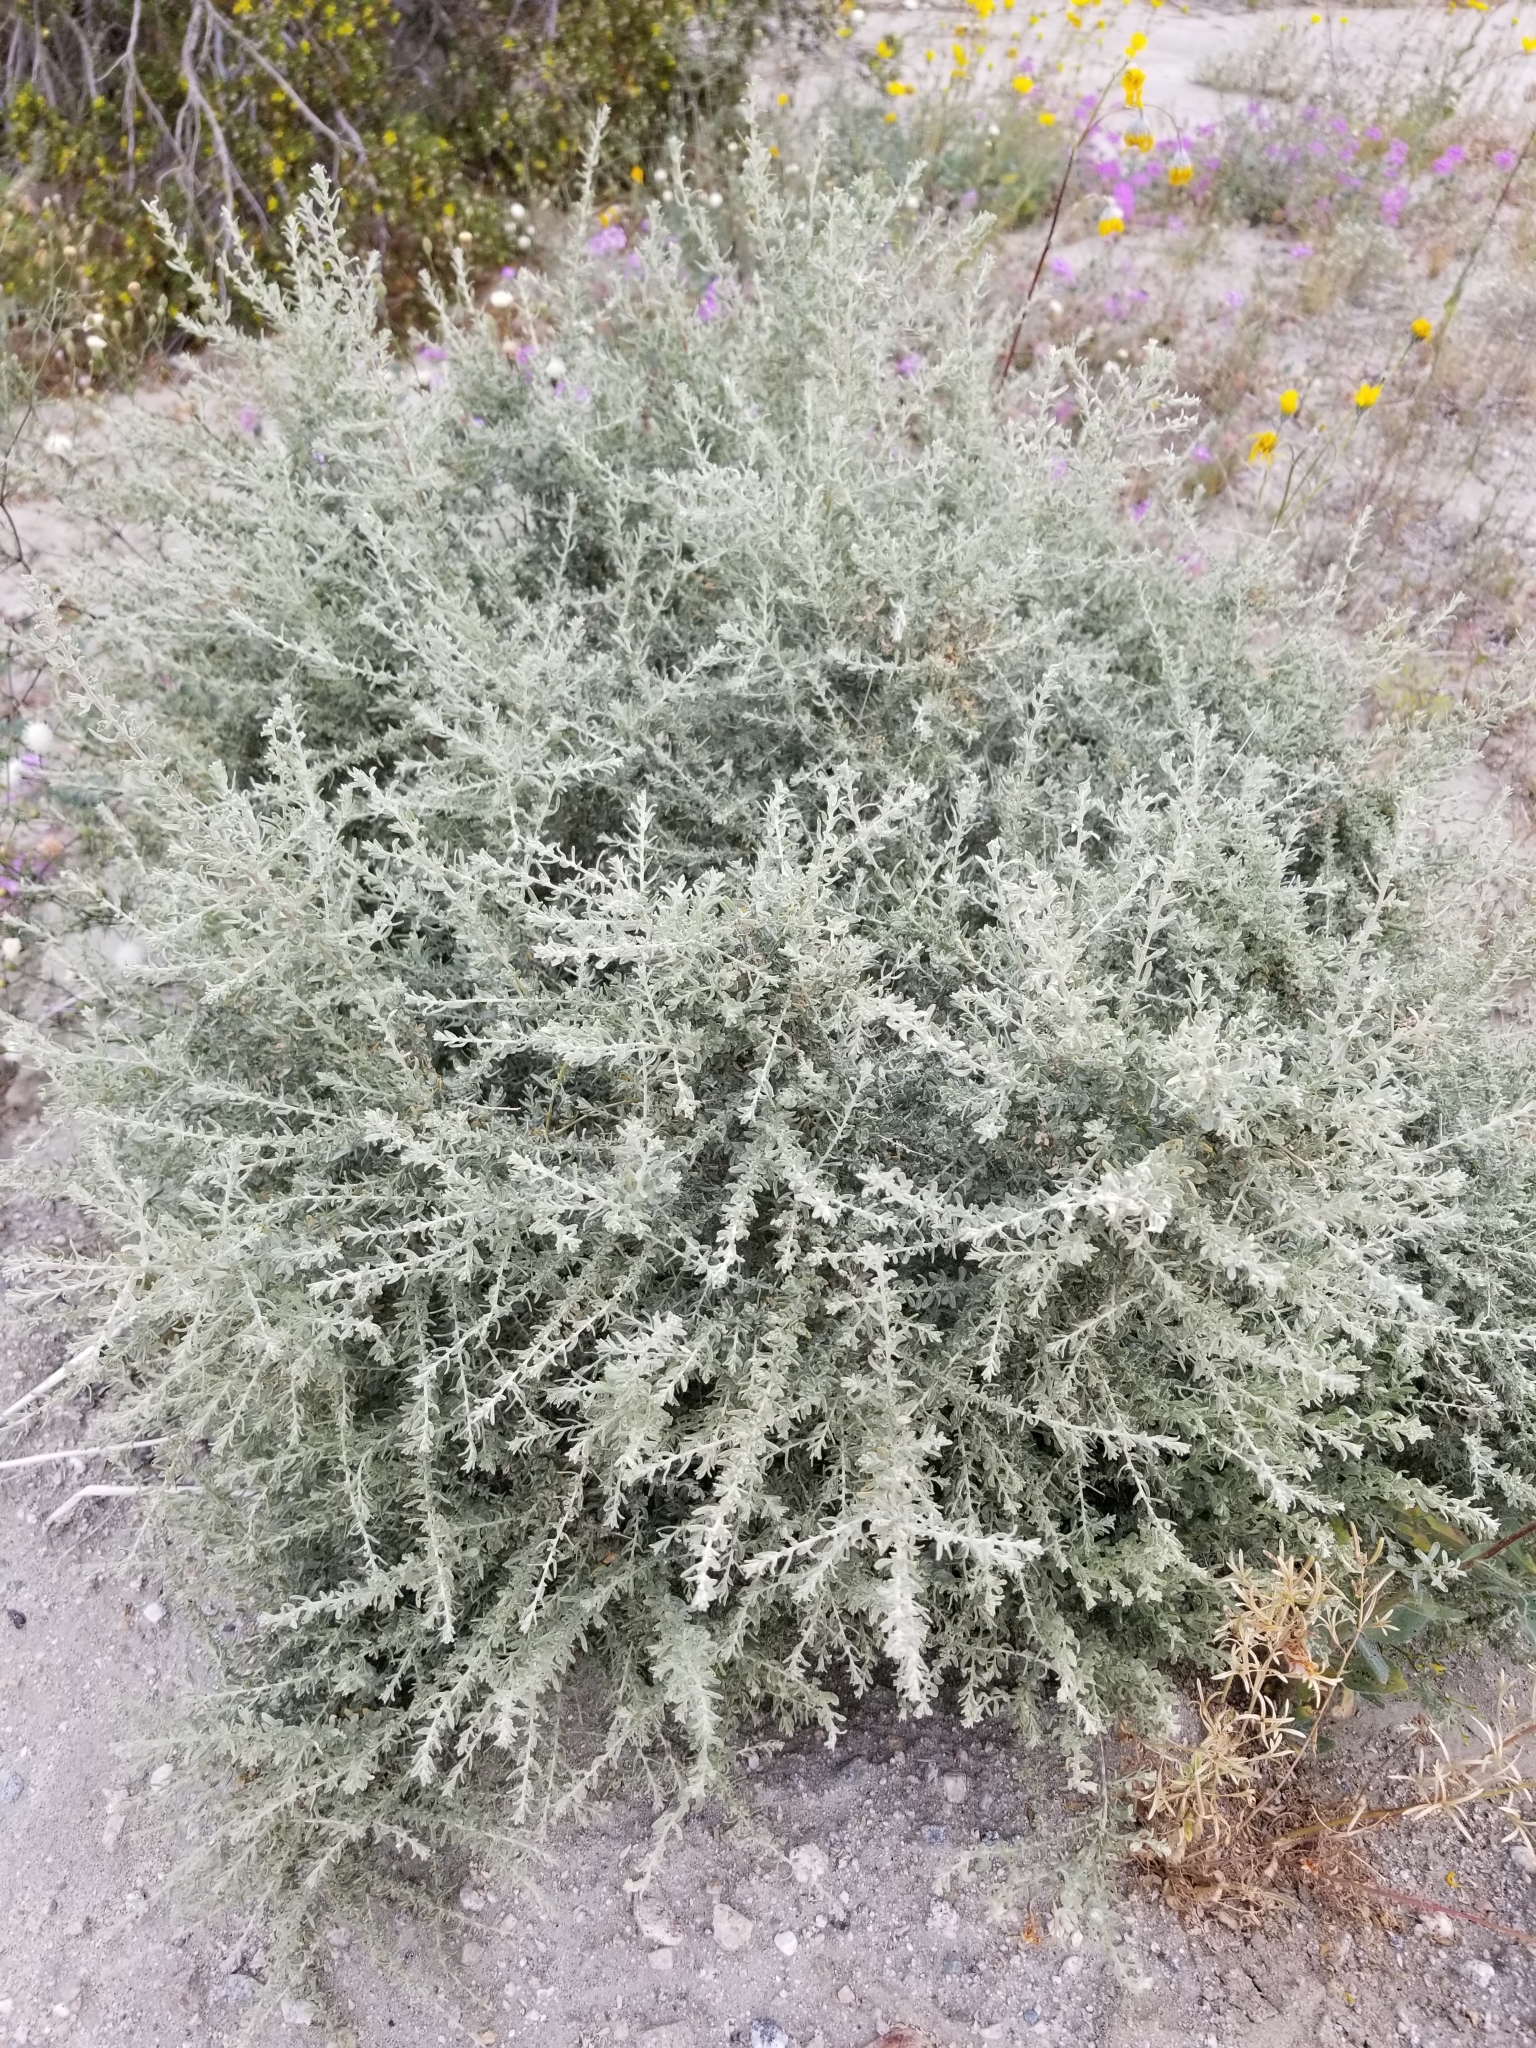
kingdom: Plantae
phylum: Tracheophyta
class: Magnoliopsida
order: Caryophyllales
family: Amaranthaceae
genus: Atriplex
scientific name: Atriplex polycarpa
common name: Desert saltbush
